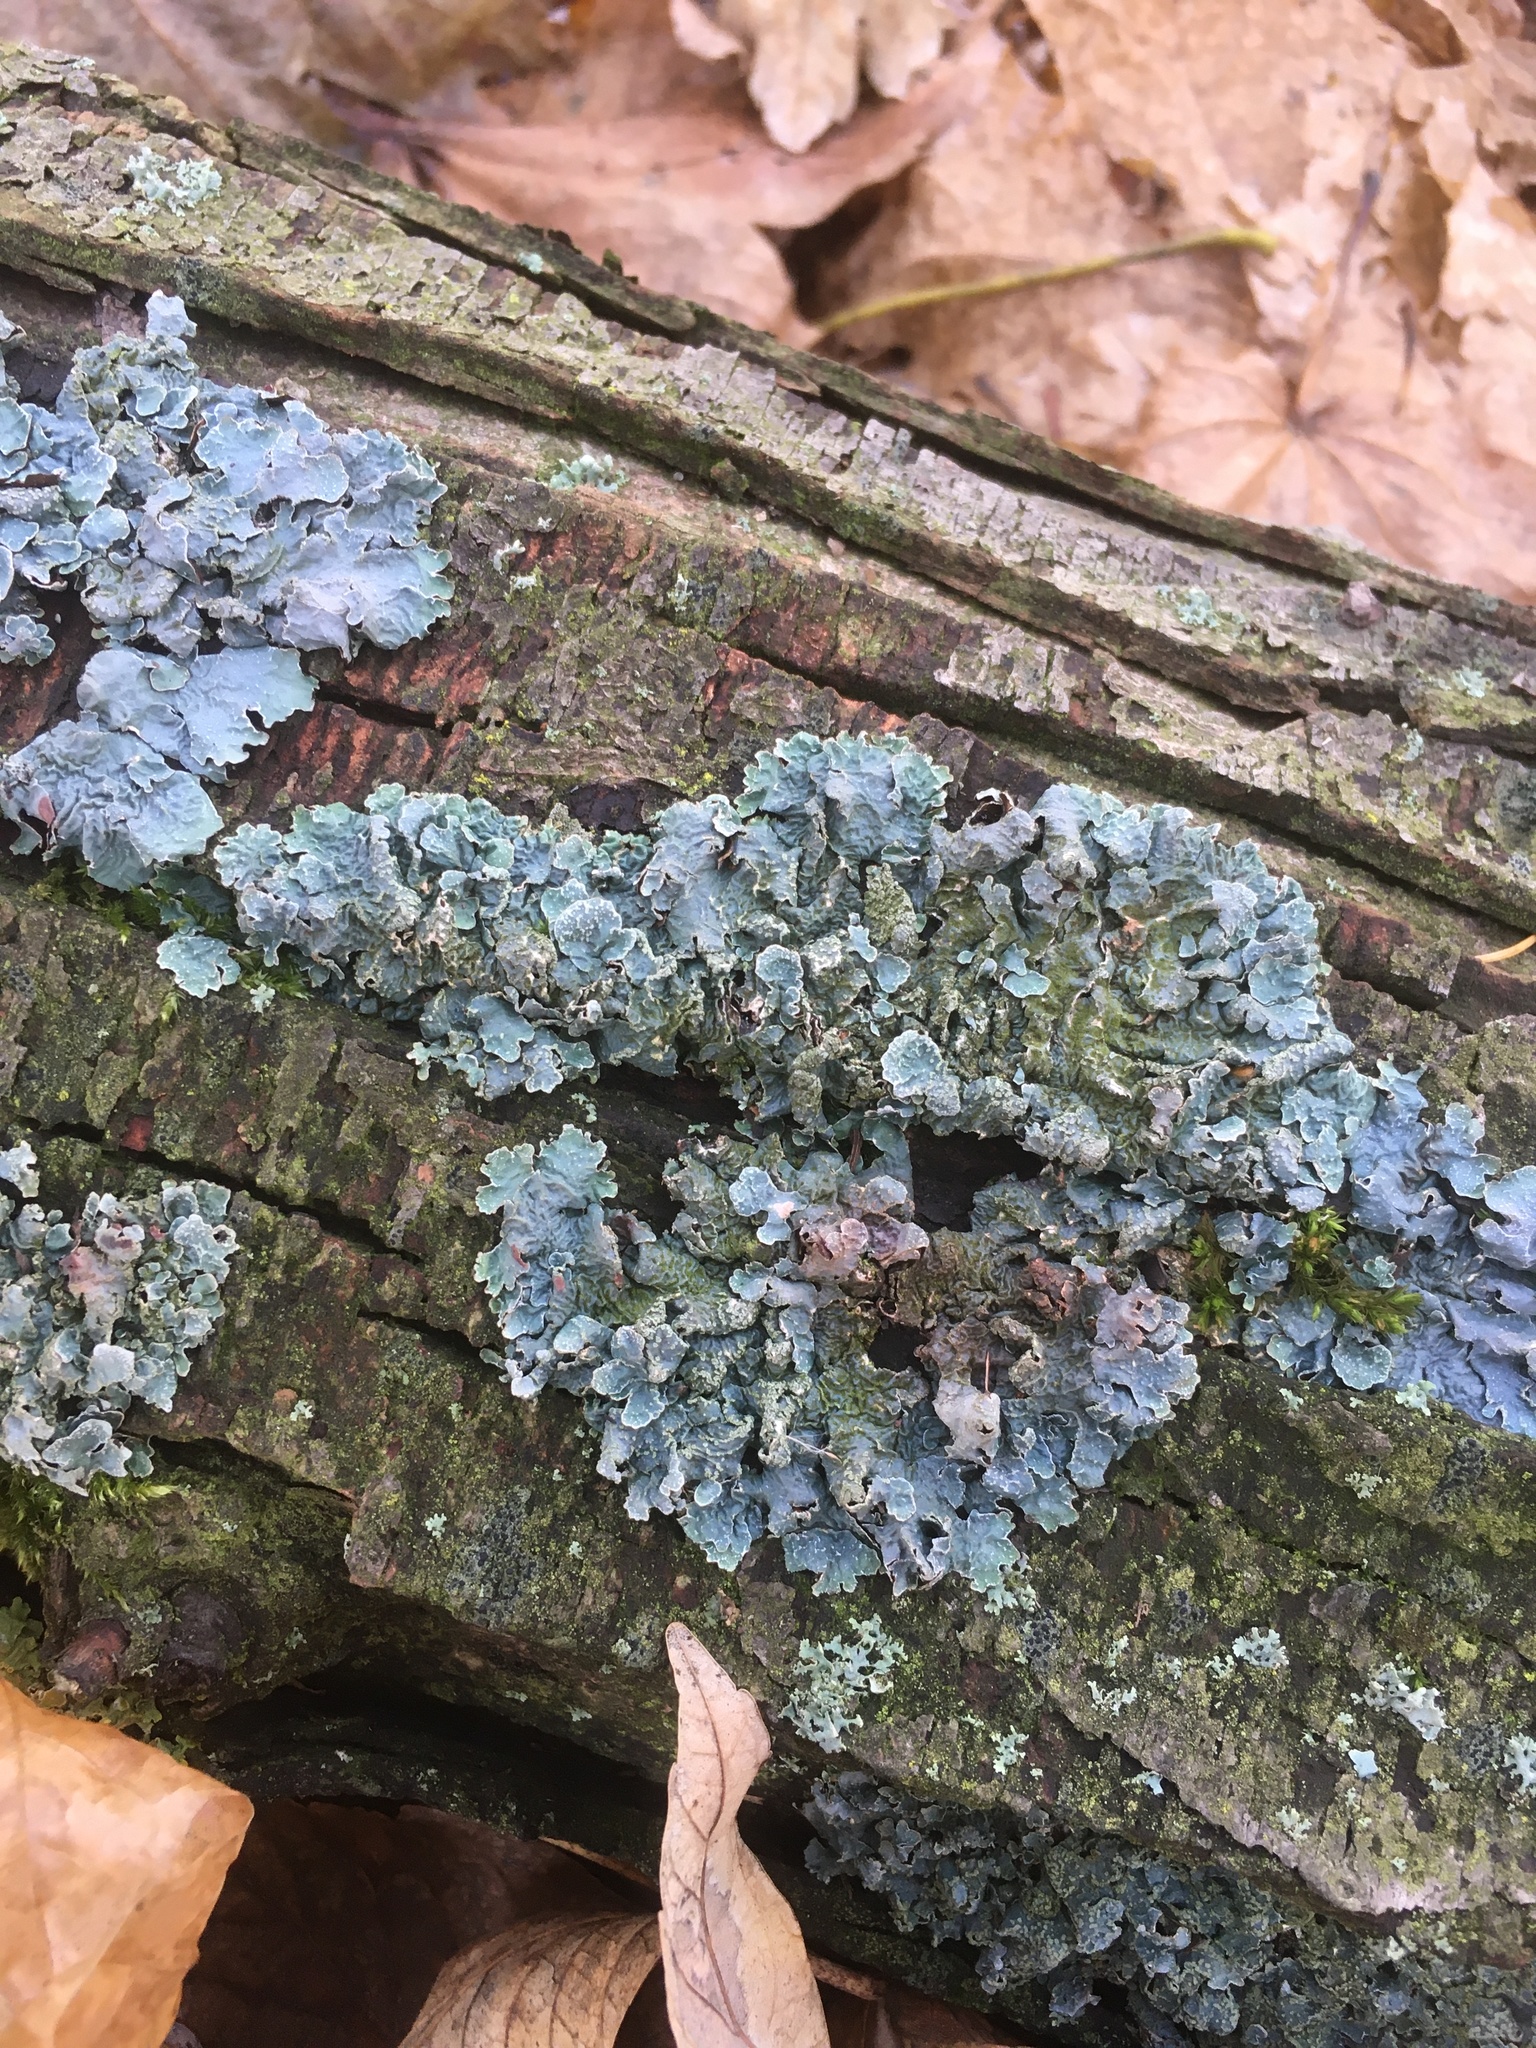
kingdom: Fungi
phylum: Ascomycota
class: Lecanoromycetes
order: Lecanorales
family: Parmeliaceae
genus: Parmelia
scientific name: Parmelia sulcata
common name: Netted shield lichen
